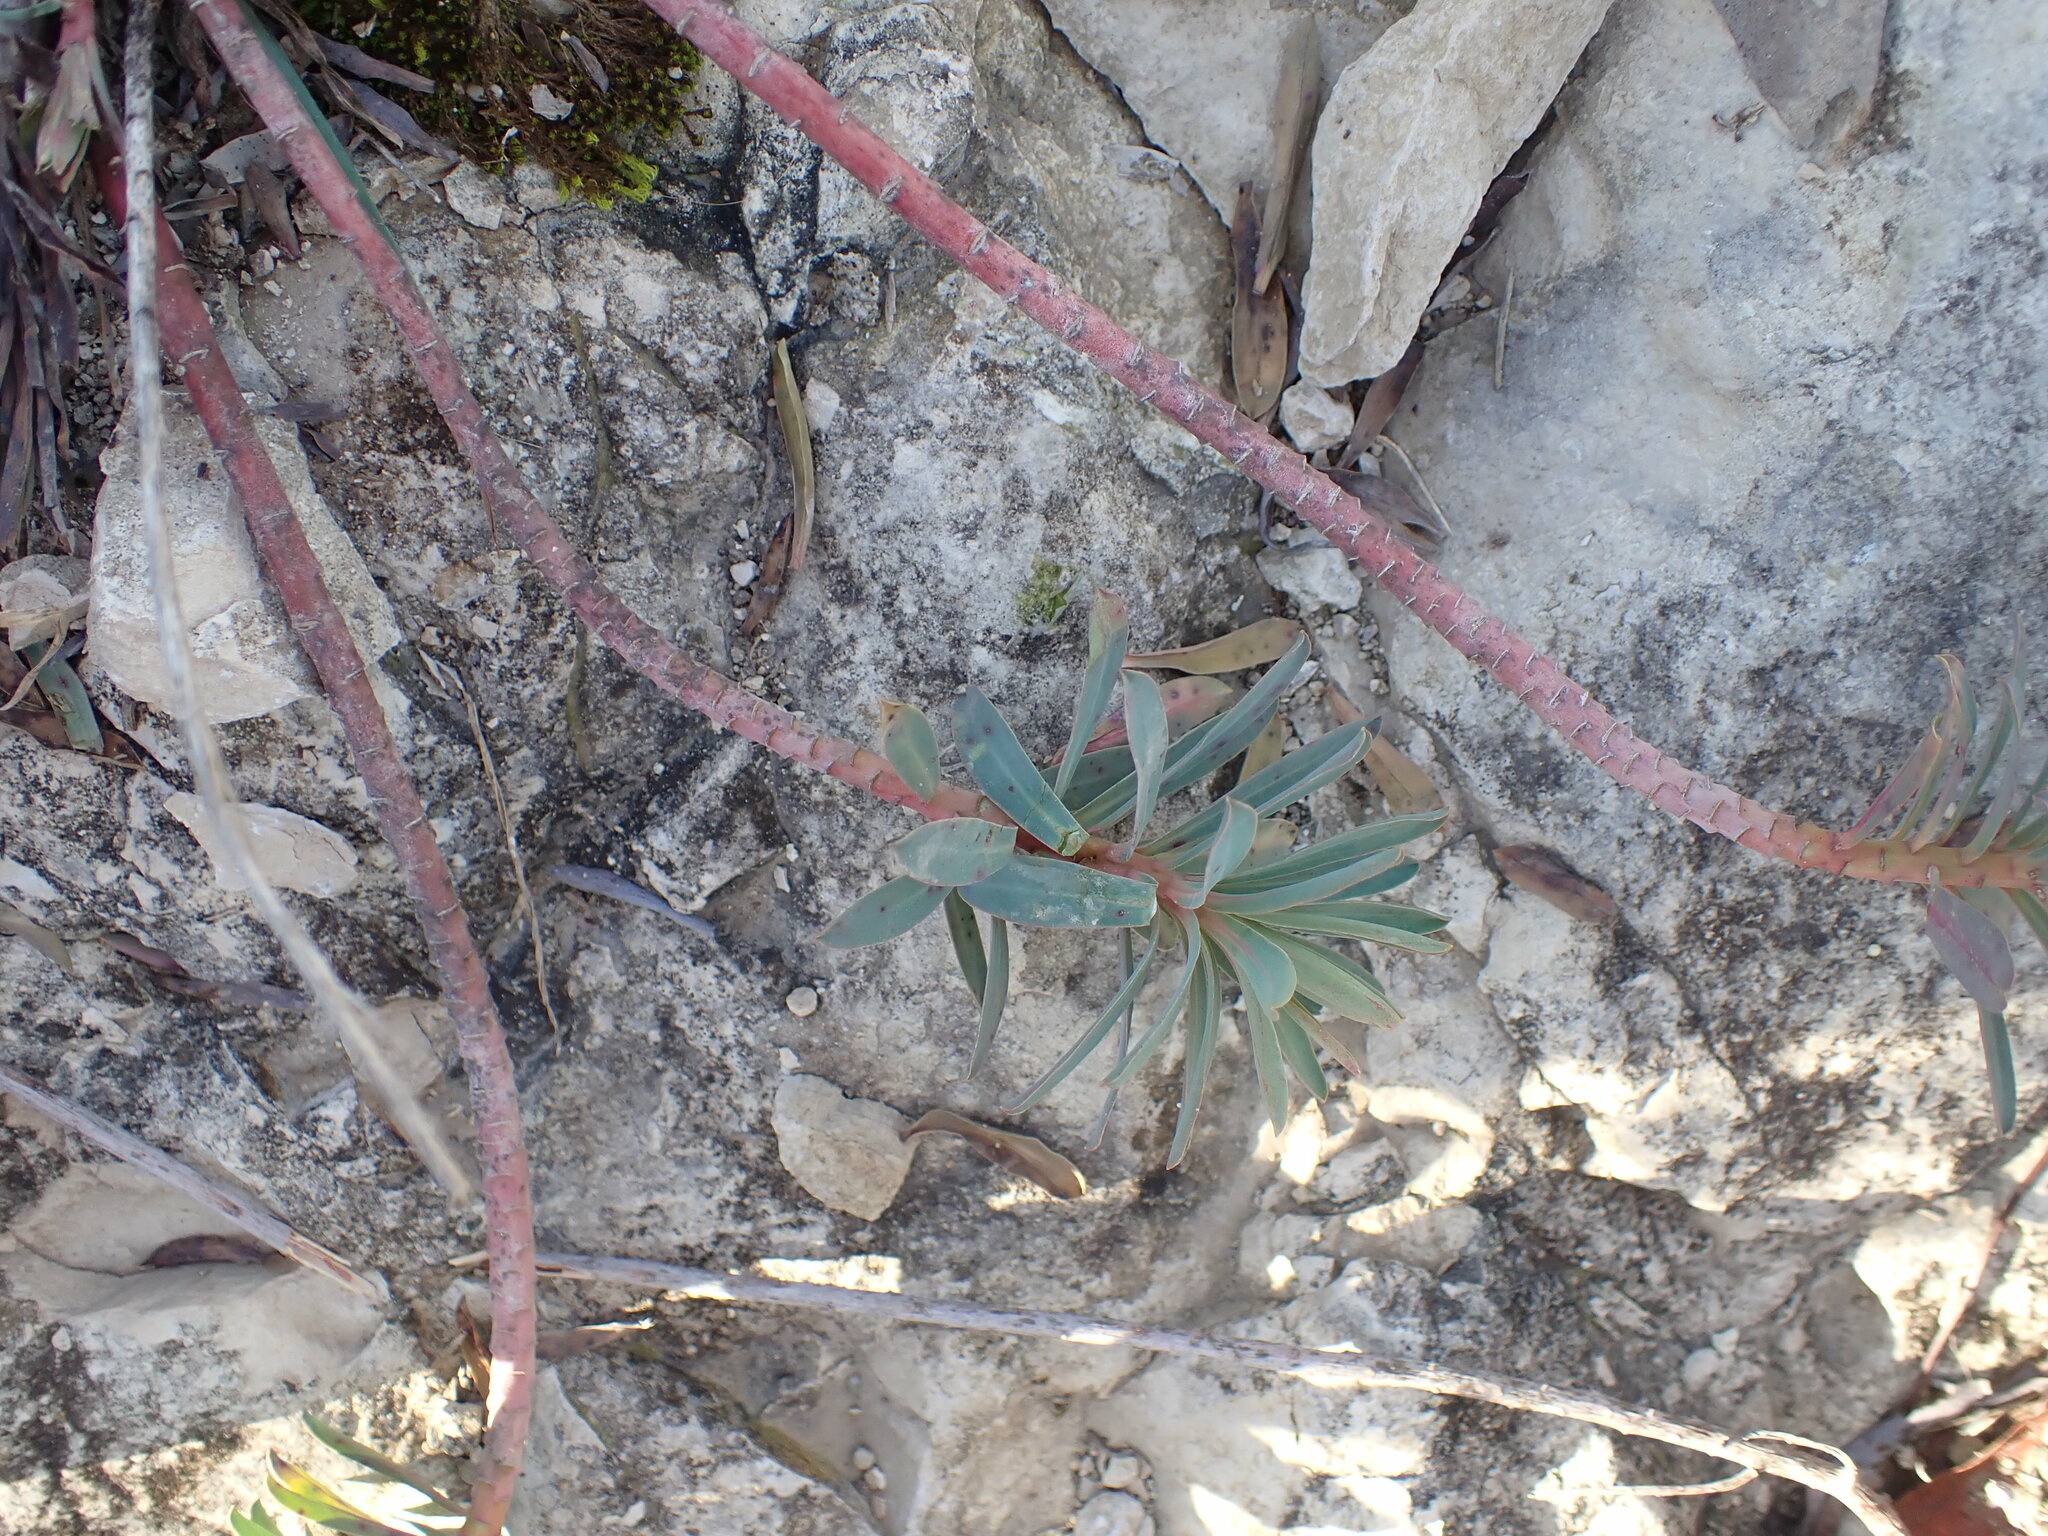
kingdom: Plantae
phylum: Tracheophyta
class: Magnoliopsida
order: Malpighiales
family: Euphorbiaceae
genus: Euphorbia
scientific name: Euphorbia nicaeensis
